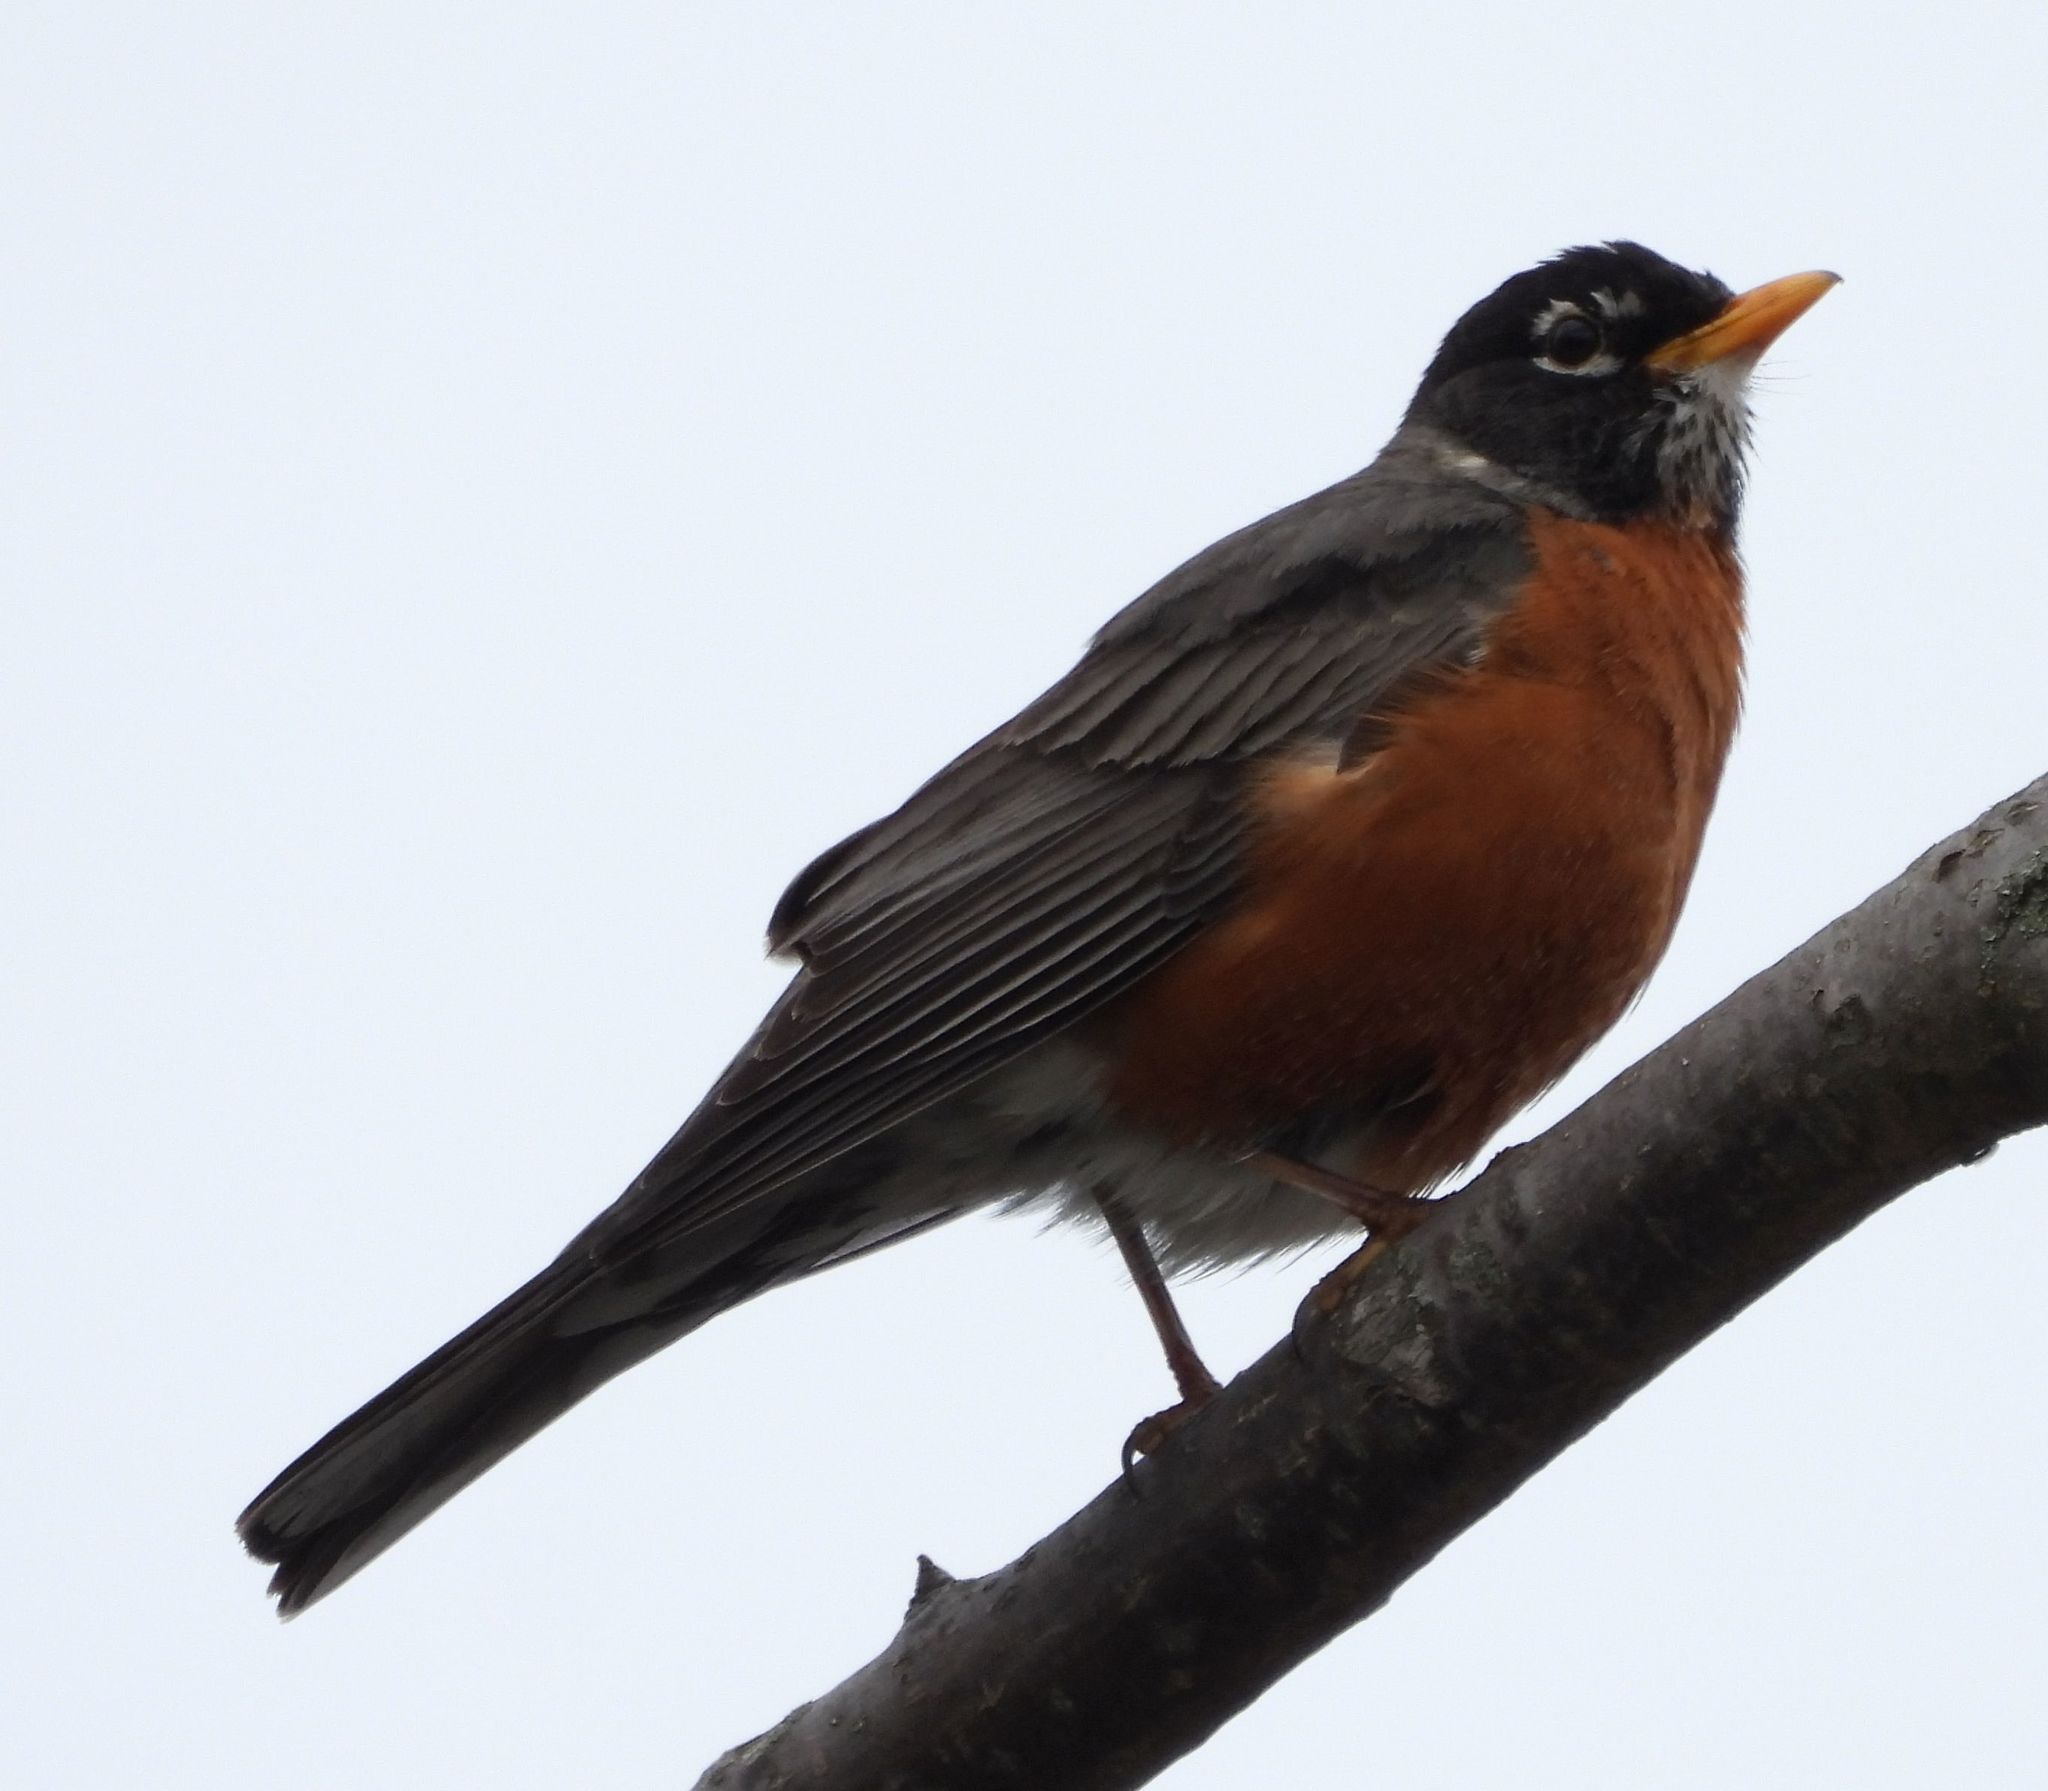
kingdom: Animalia
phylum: Chordata
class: Aves
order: Passeriformes
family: Turdidae
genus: Turdus
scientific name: Turdus migratorius
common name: American robin
